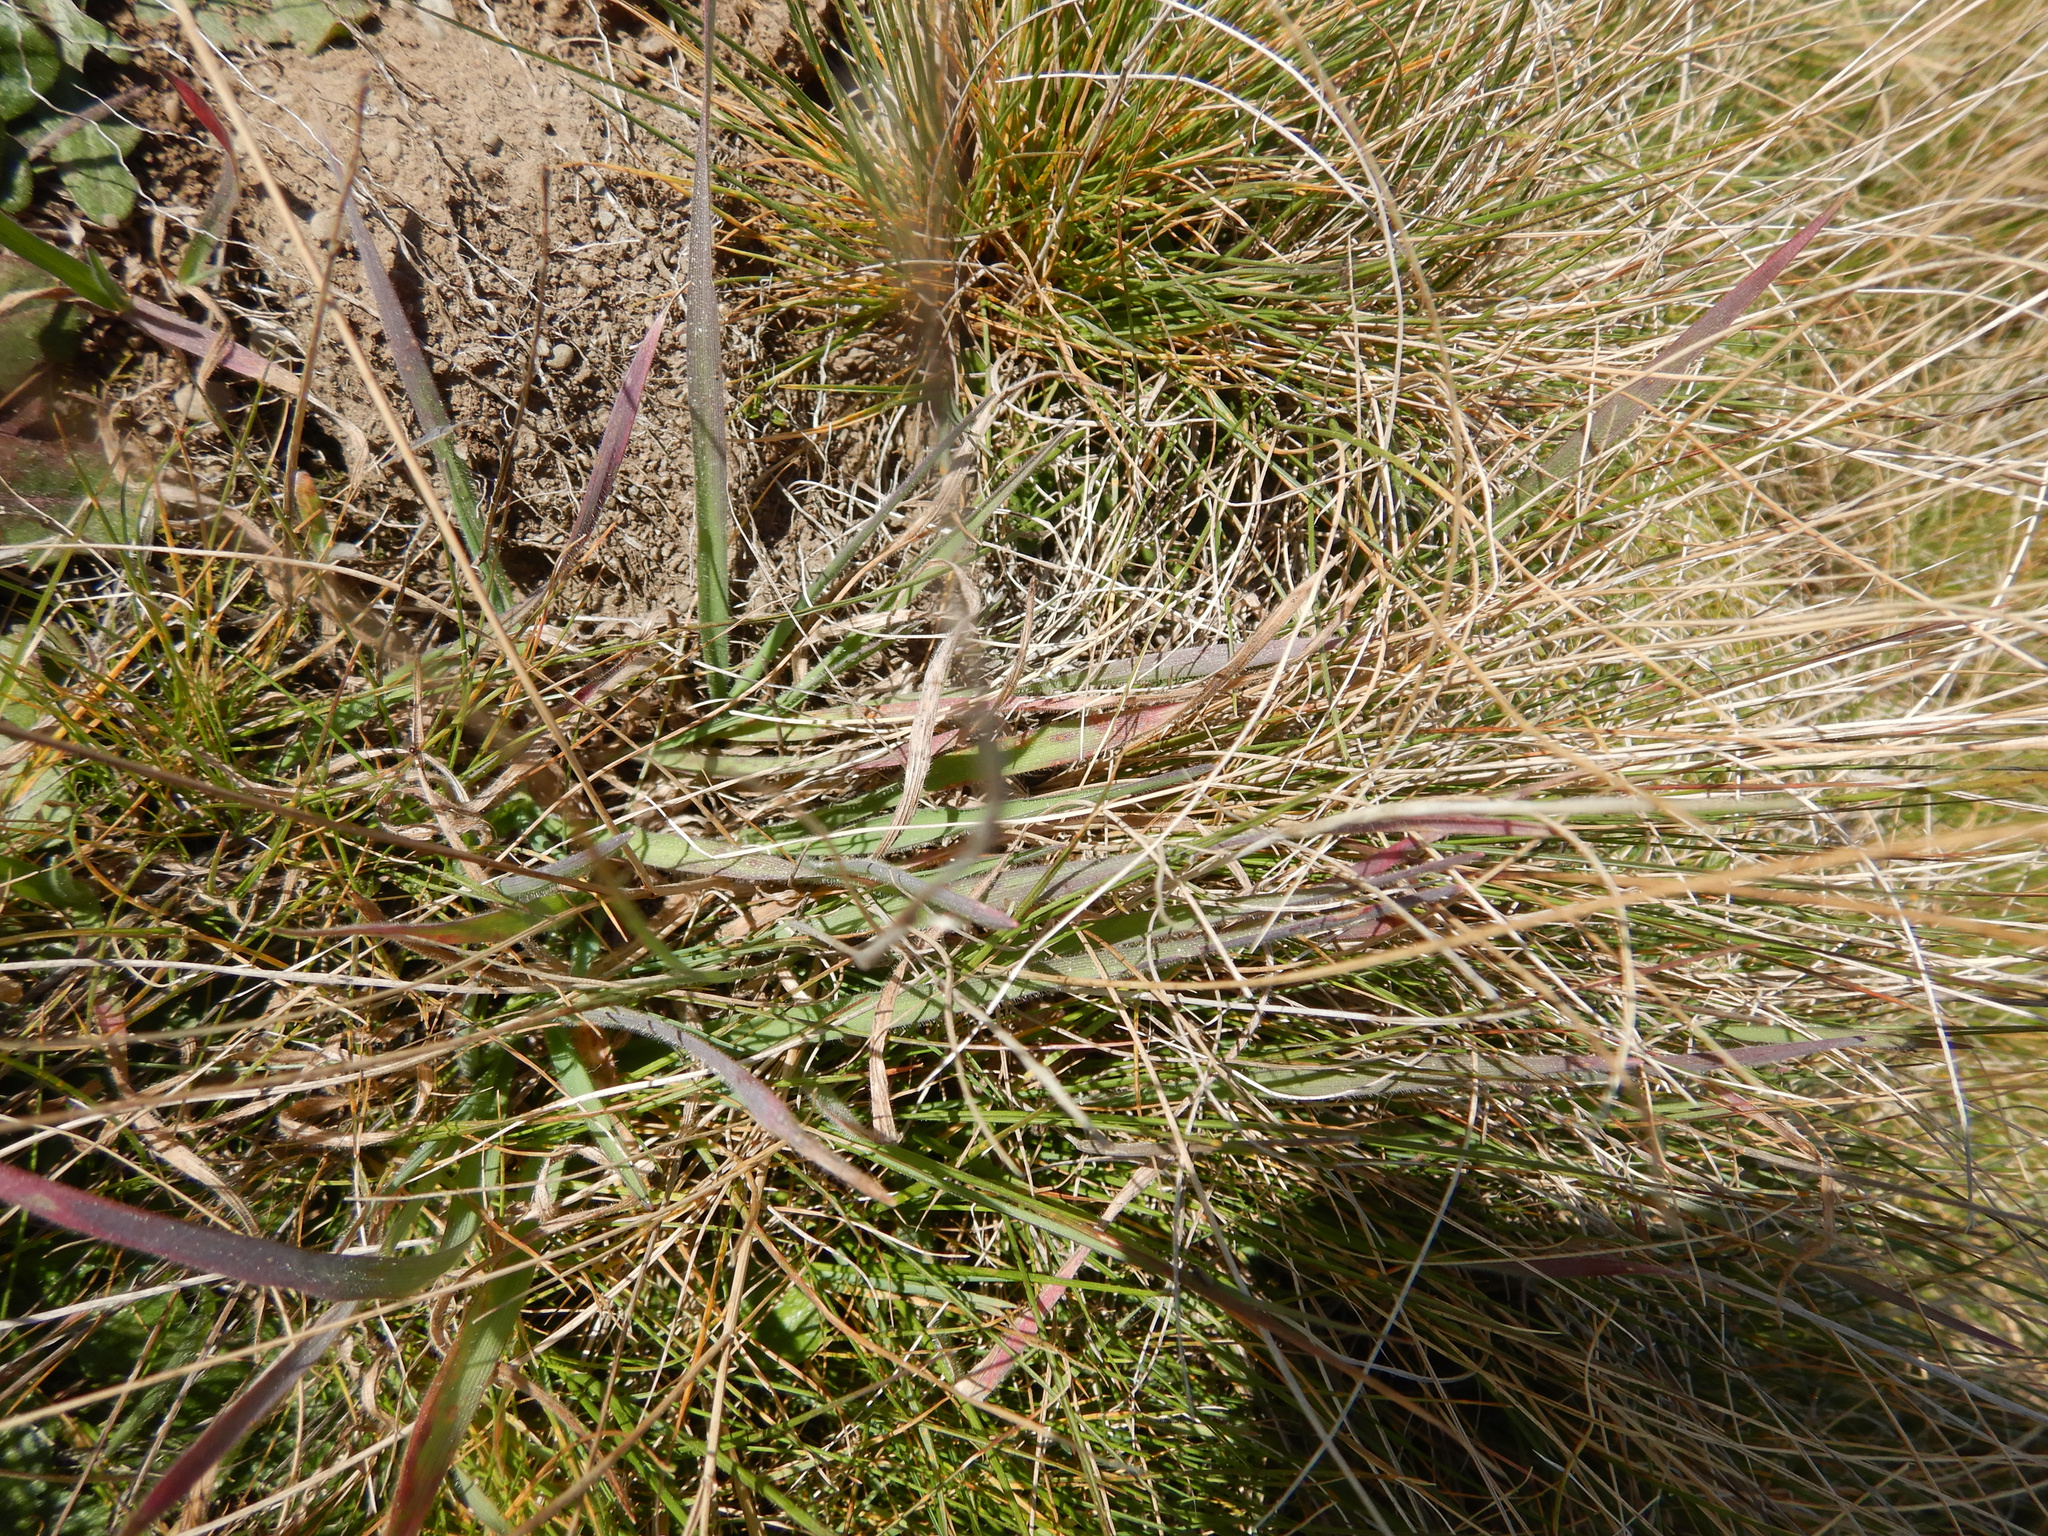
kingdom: Plantae
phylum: Tracheophyta
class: Liliopsida
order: Poales
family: Poaceae
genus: Holcus
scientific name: Holcus lanatus
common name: Yorkshire-fog
